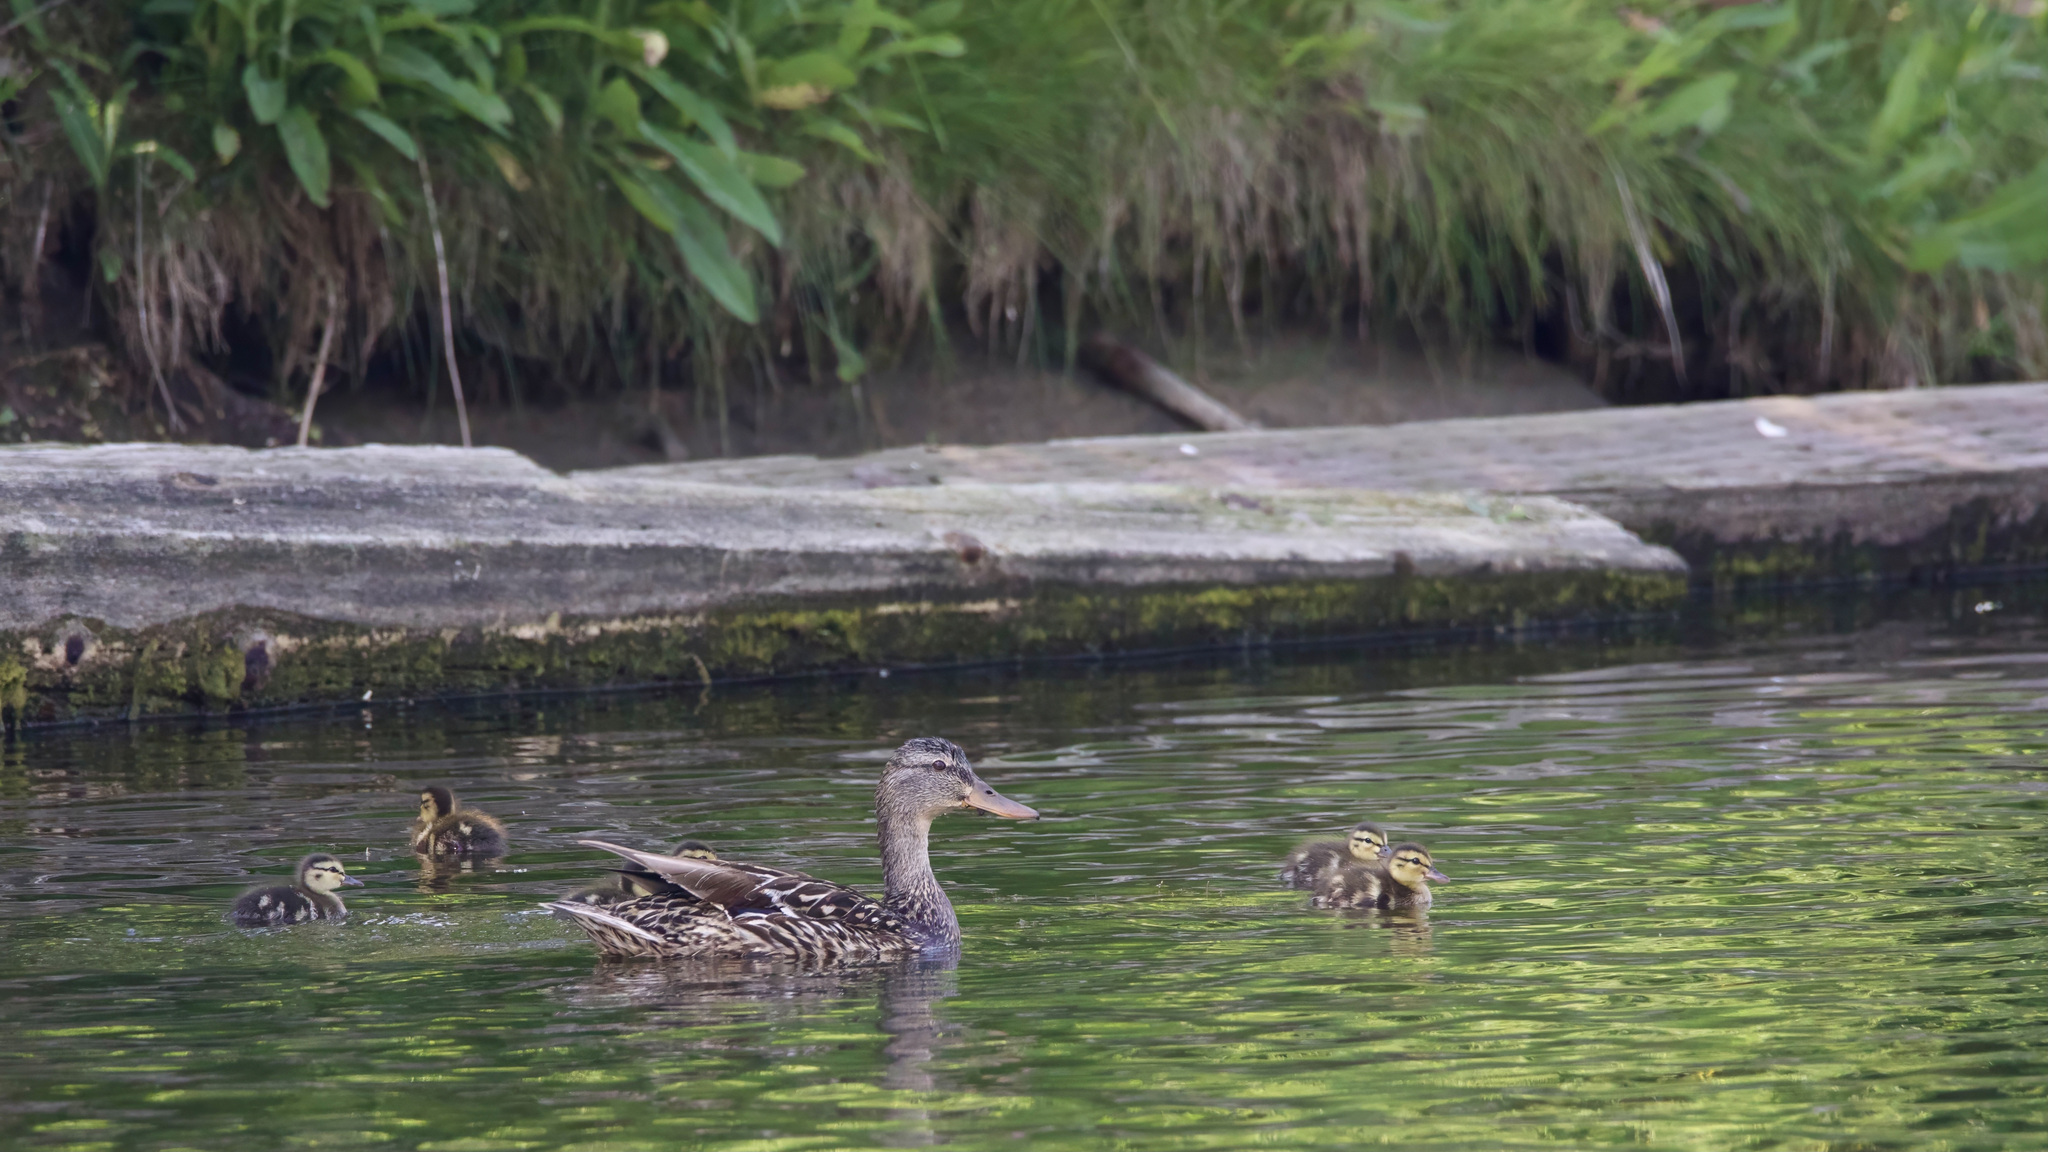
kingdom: Animalia
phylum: Chordata
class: Aves
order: Anseriformes
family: Anatidae
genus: Anas
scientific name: Anas platyrhynchos
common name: Mallard
